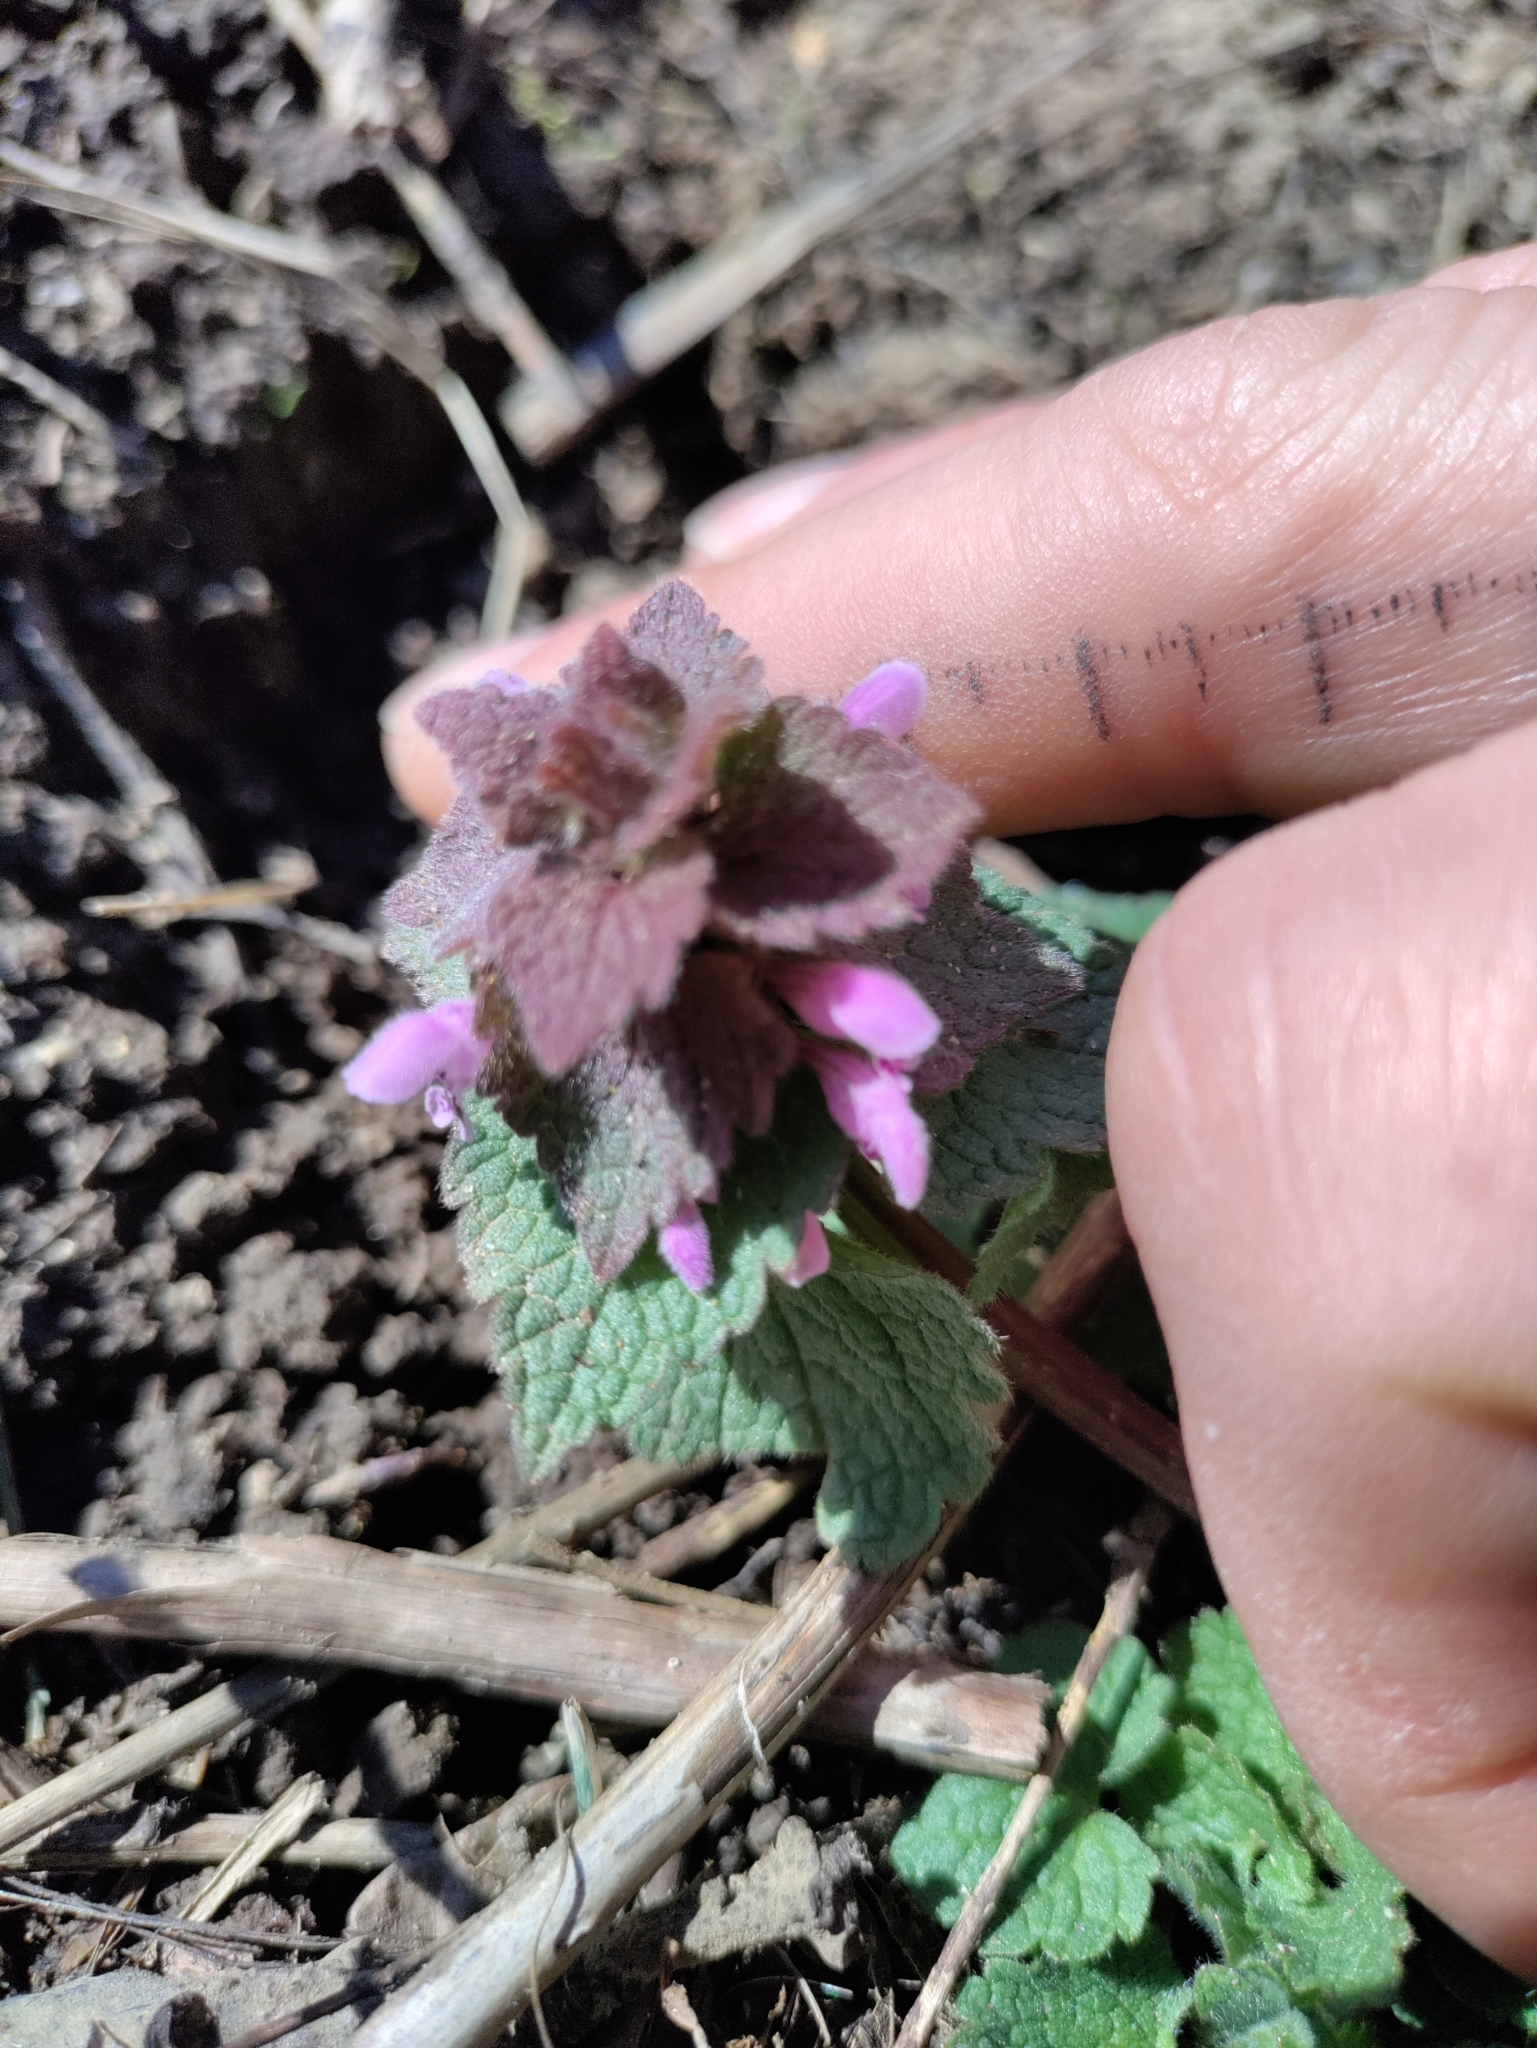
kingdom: Plantae
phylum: Tracheophyta
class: Magnoliopsida
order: Lamiales
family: Lamiaceae
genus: Lamium
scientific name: Lamium purpureum
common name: Red dead-nettle
